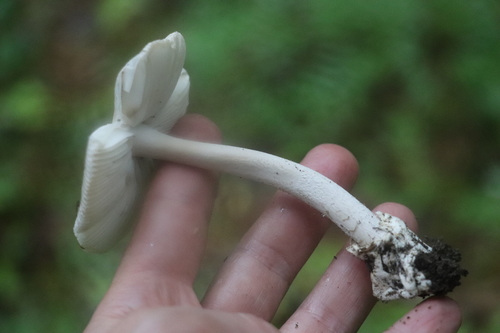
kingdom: Fungi
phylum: Basidiomycota
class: Agaricomycetes
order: Agaricales
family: Amanitaceae
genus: Amanita
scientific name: Amanita
